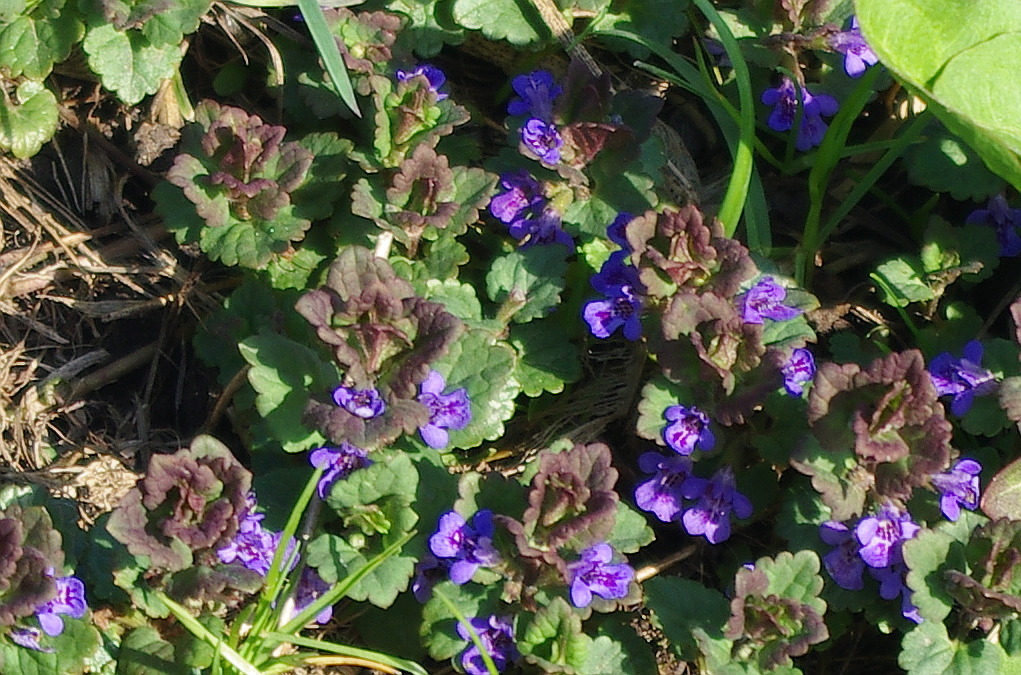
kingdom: Plantae
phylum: Tracheophyta
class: Magnoliopsida
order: Lamiales
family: Lamiaceae
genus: Glechoma
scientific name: Glechoma hederacea
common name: Ground ivy
